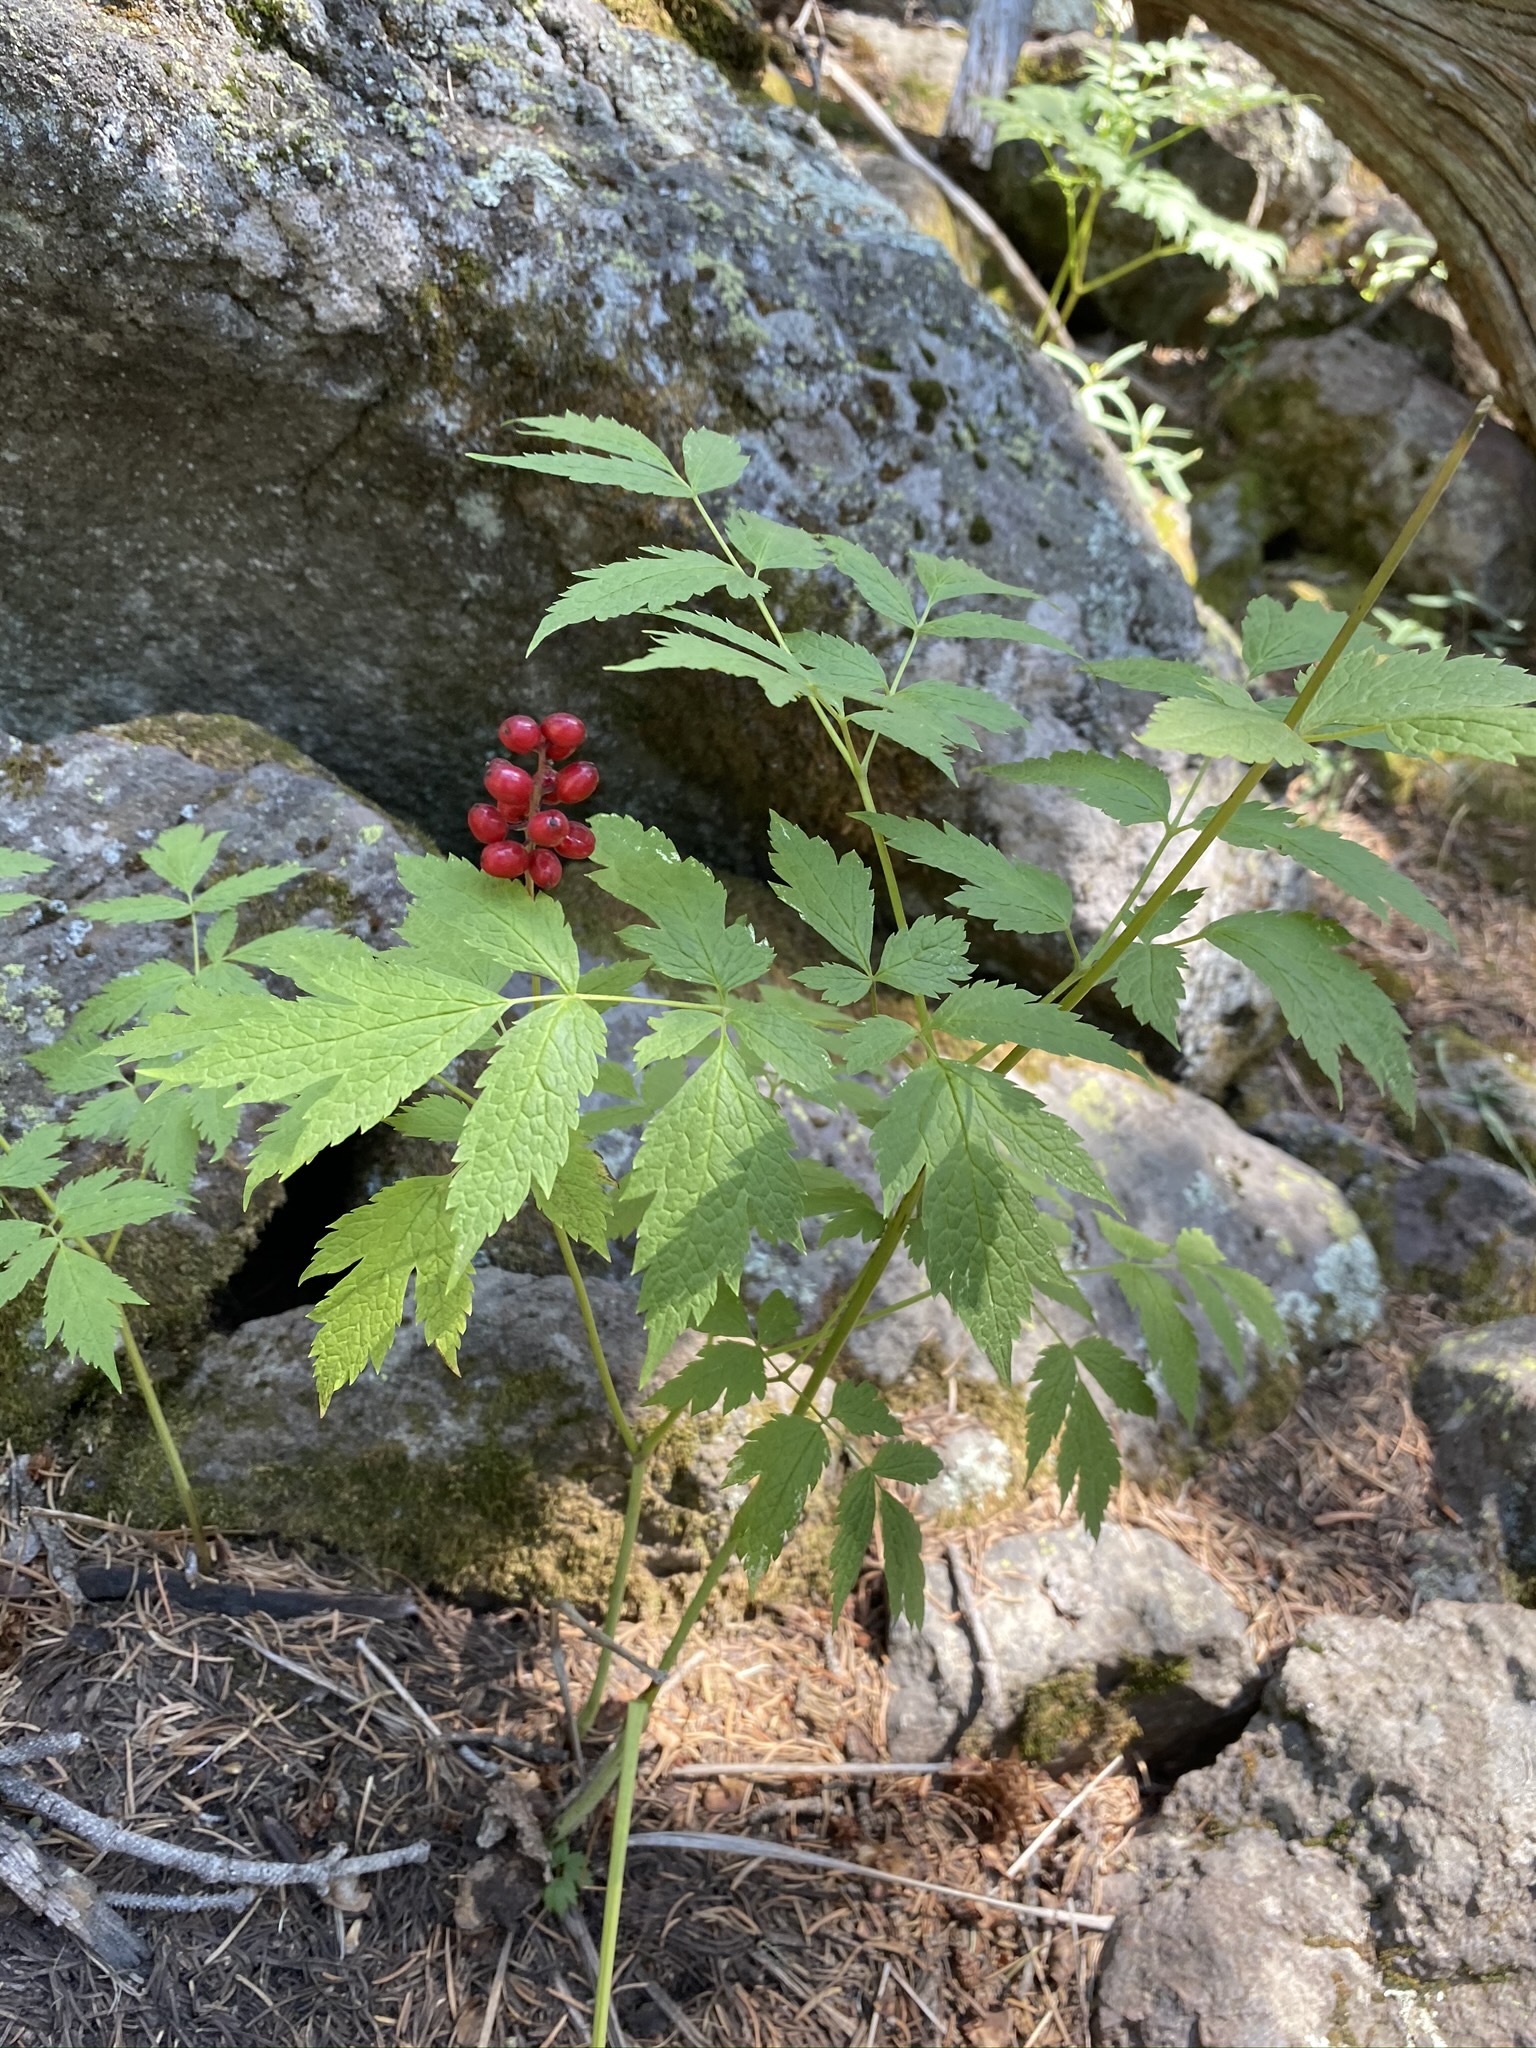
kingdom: Plantae
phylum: Tracheophyta
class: Magnoliopsida
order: Ranunculales
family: Ranunculaceae
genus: Actaea
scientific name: Actaea rubra
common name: Red baneberry
